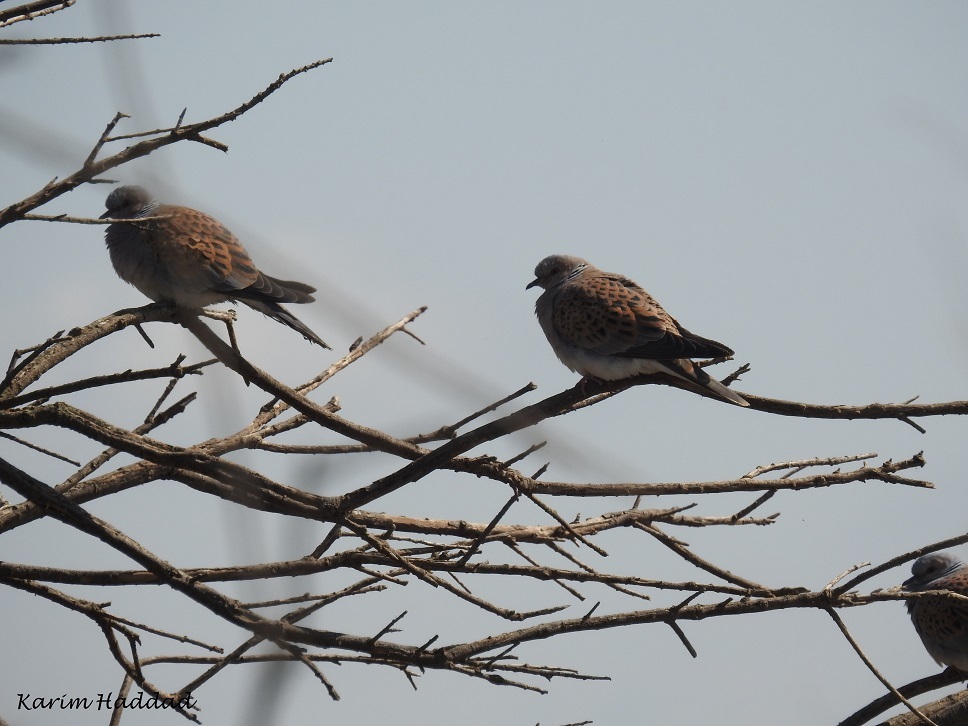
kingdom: Animalia
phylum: Chordata
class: Aves
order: Columbiformes
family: Columbidae
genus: Streptopelia
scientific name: Streptopelia turtur
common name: European turtle dove
